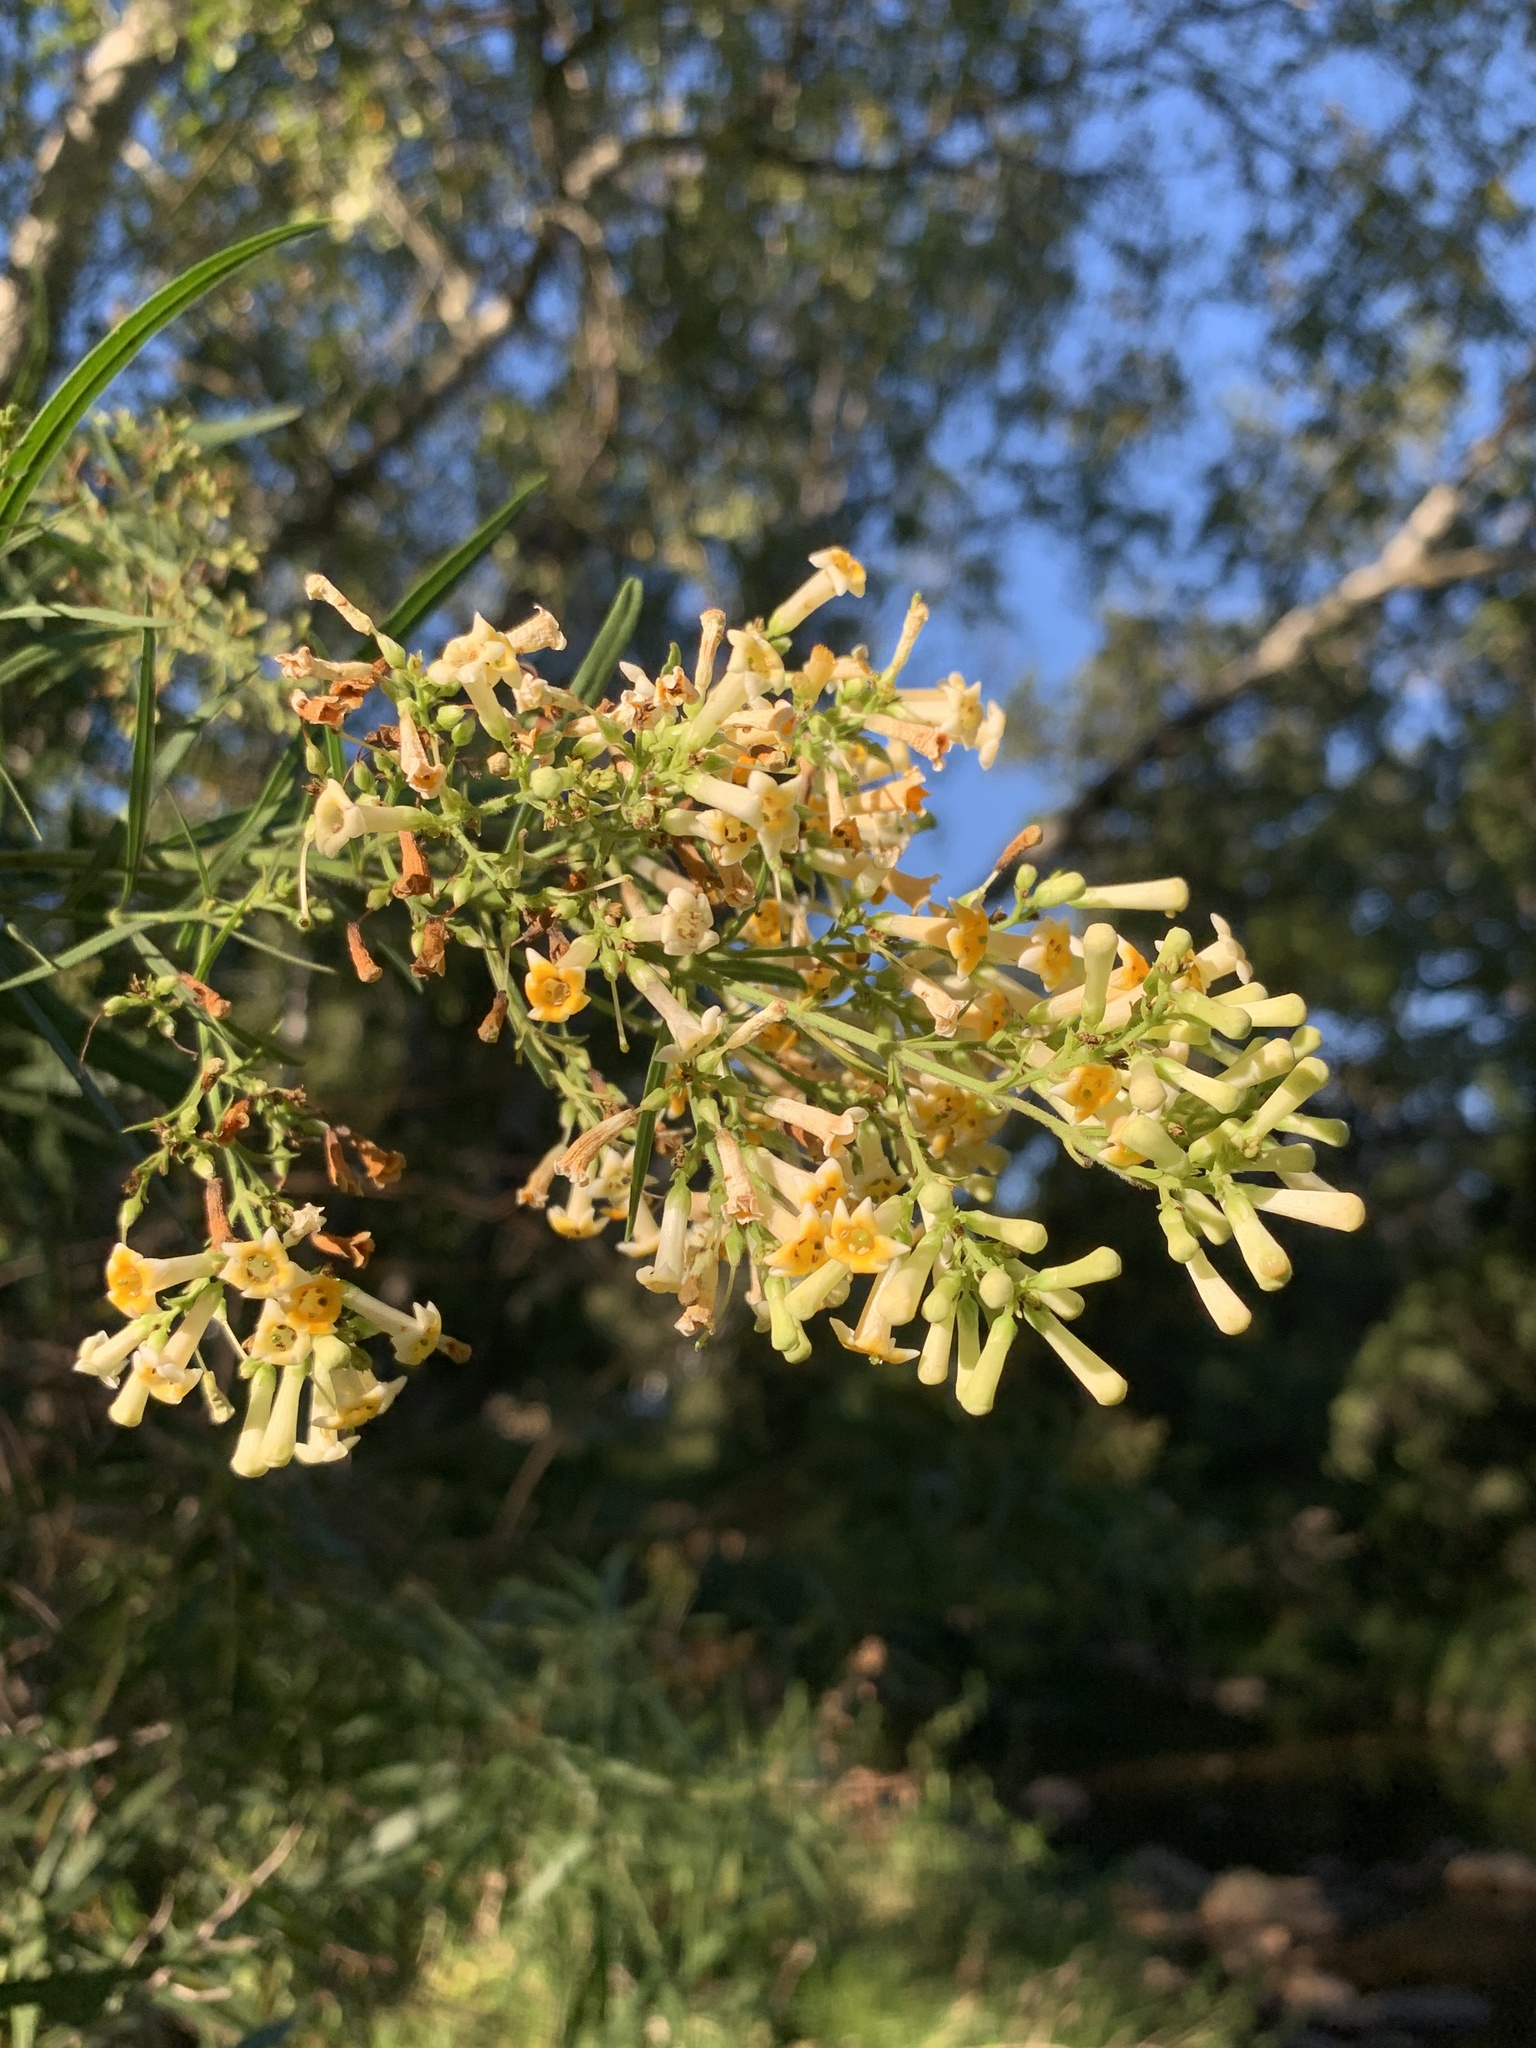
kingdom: Plantae
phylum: Tracheophyta
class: Magnoliopsida
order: Lamiales
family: Scrophulariaceae
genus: Freylinia
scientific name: Freylinia lanceolata
